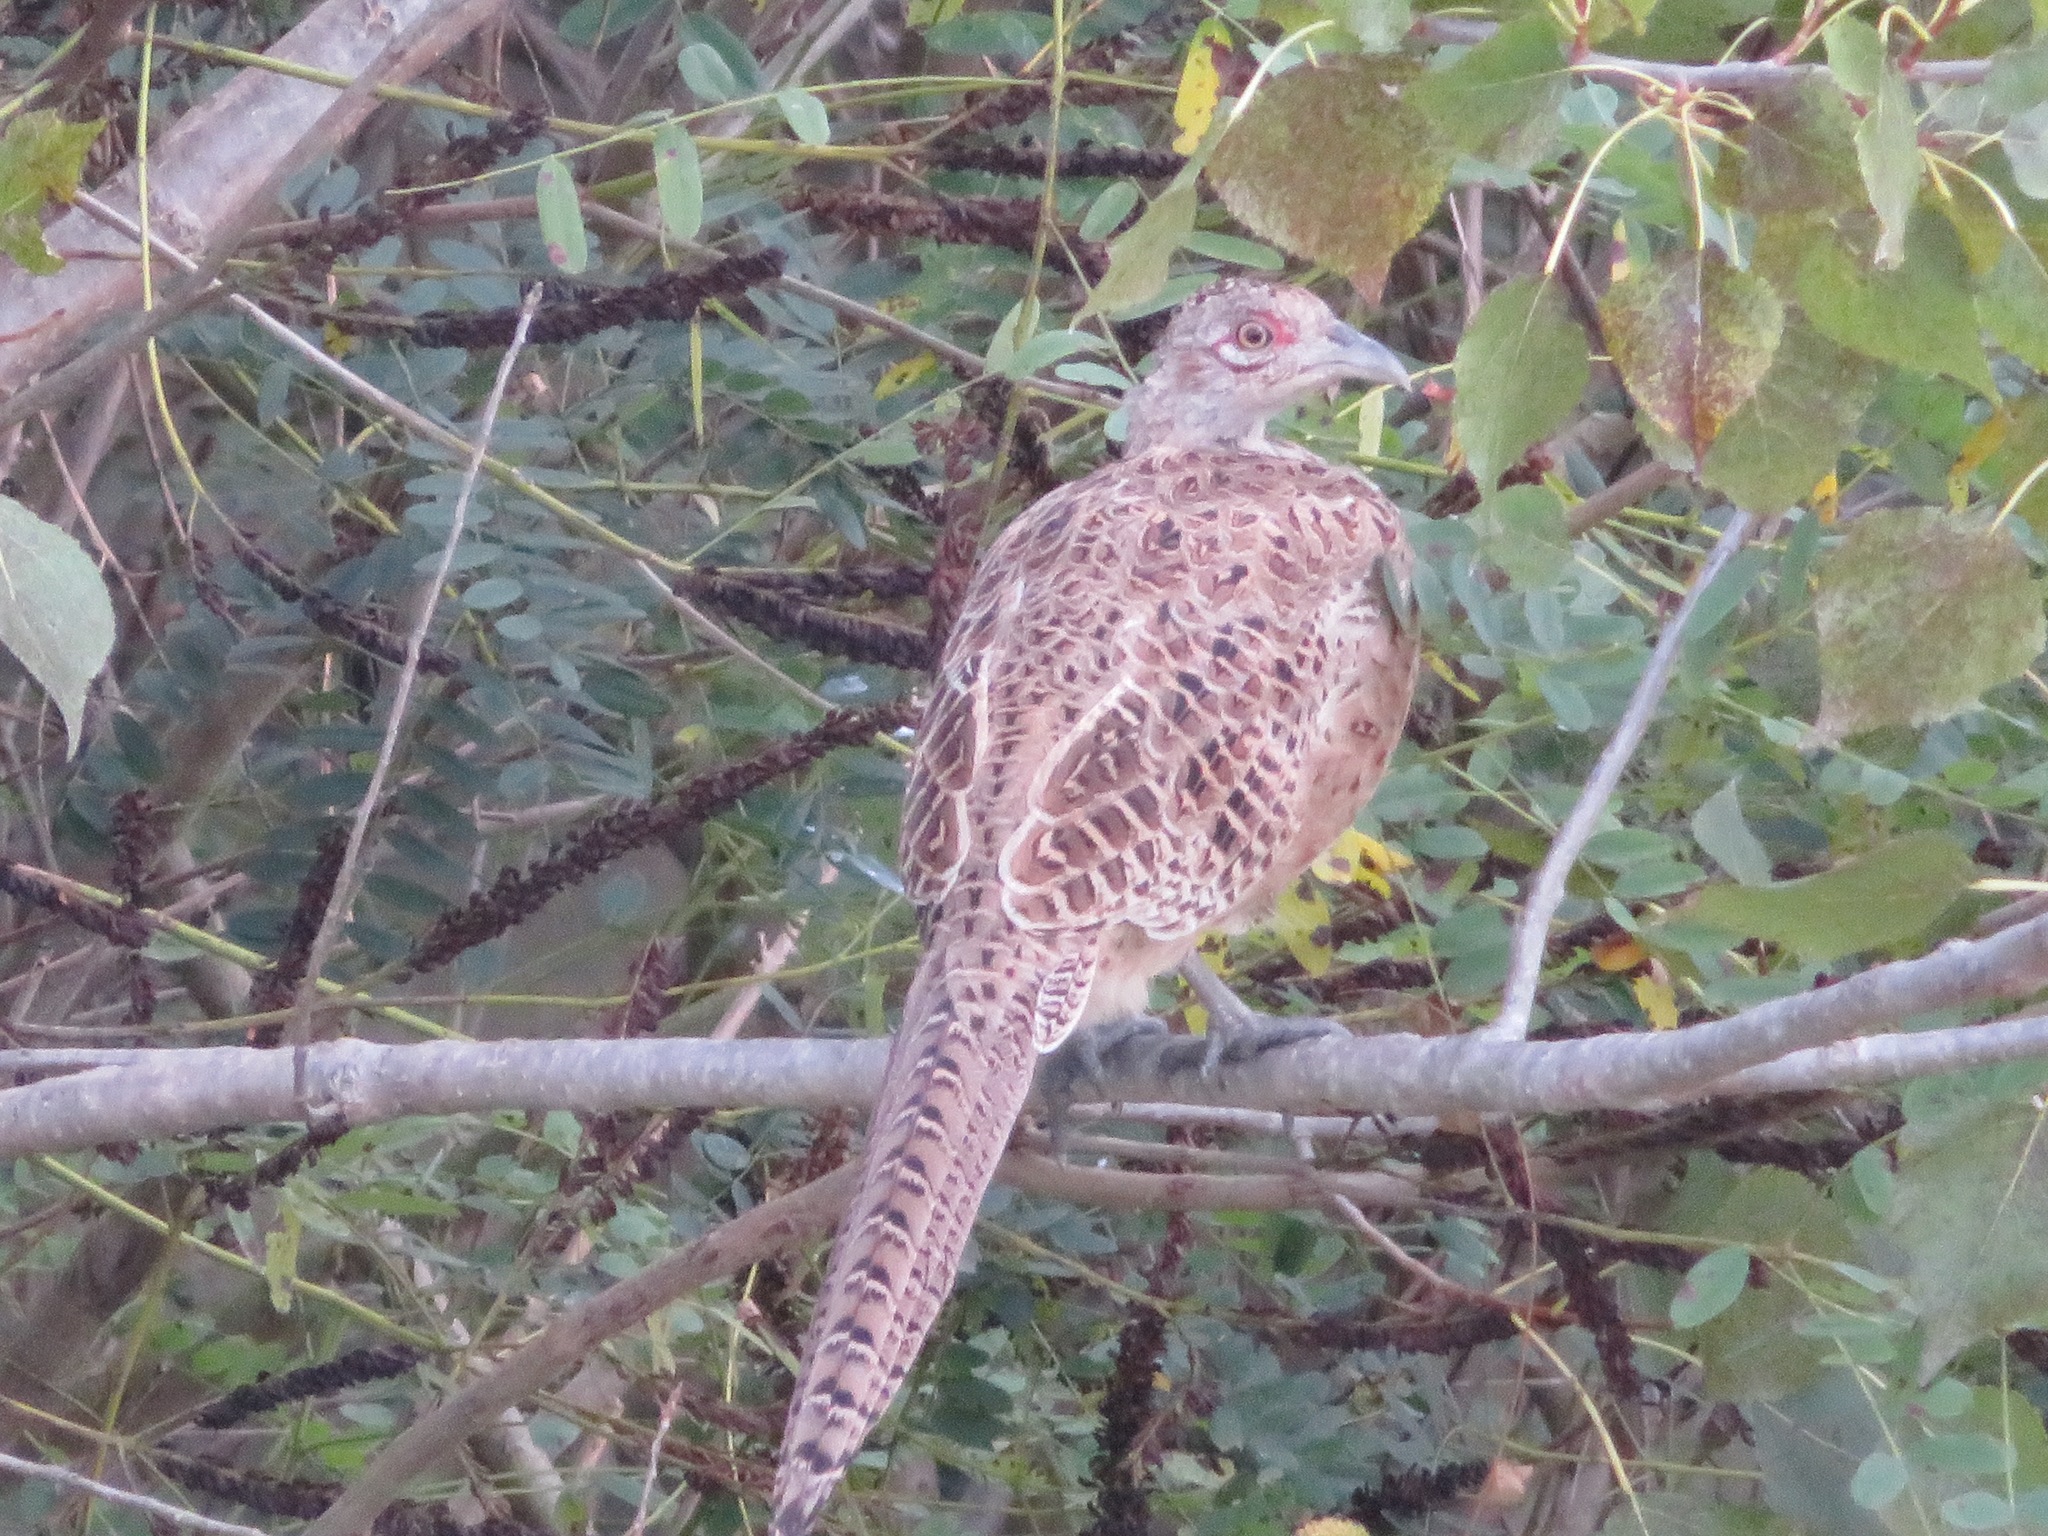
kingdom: Animalia
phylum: Chordata
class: Aves
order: Galliformes
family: Phasianidae
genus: Phasianus
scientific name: Phasianus colchicus
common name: Common pheasant
